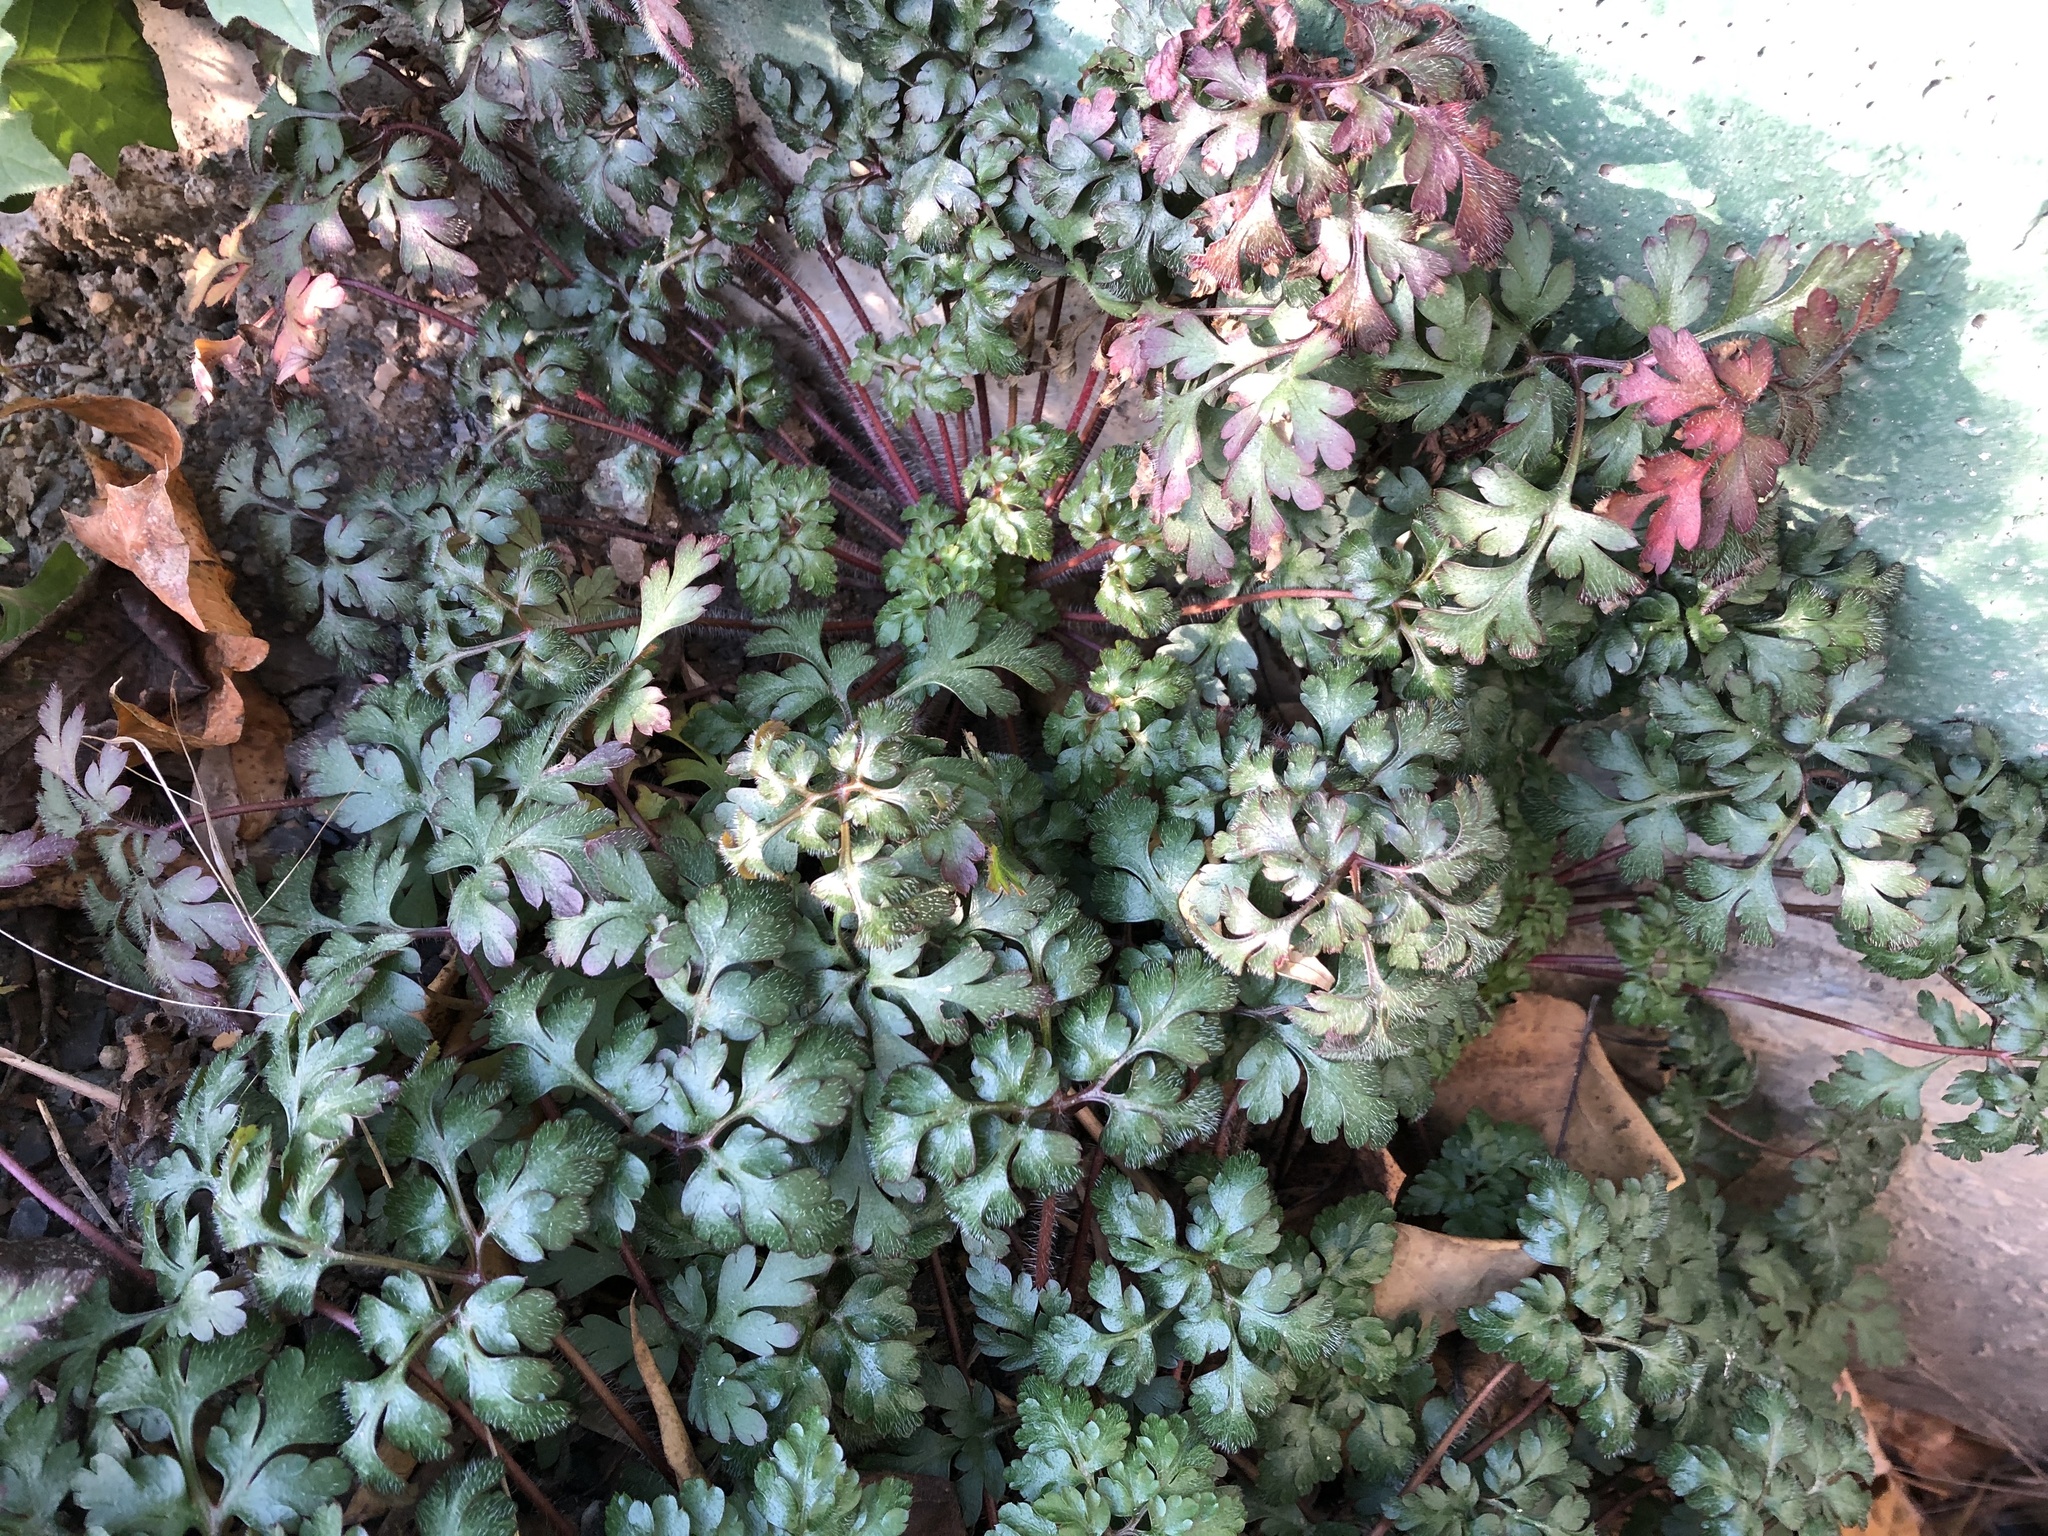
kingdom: Plantae
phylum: Tracheophyta
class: Magnoliopsida
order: Geraniales
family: Geraniaceae
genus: Geranium
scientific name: Geranium robertianum
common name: Herb-robert
